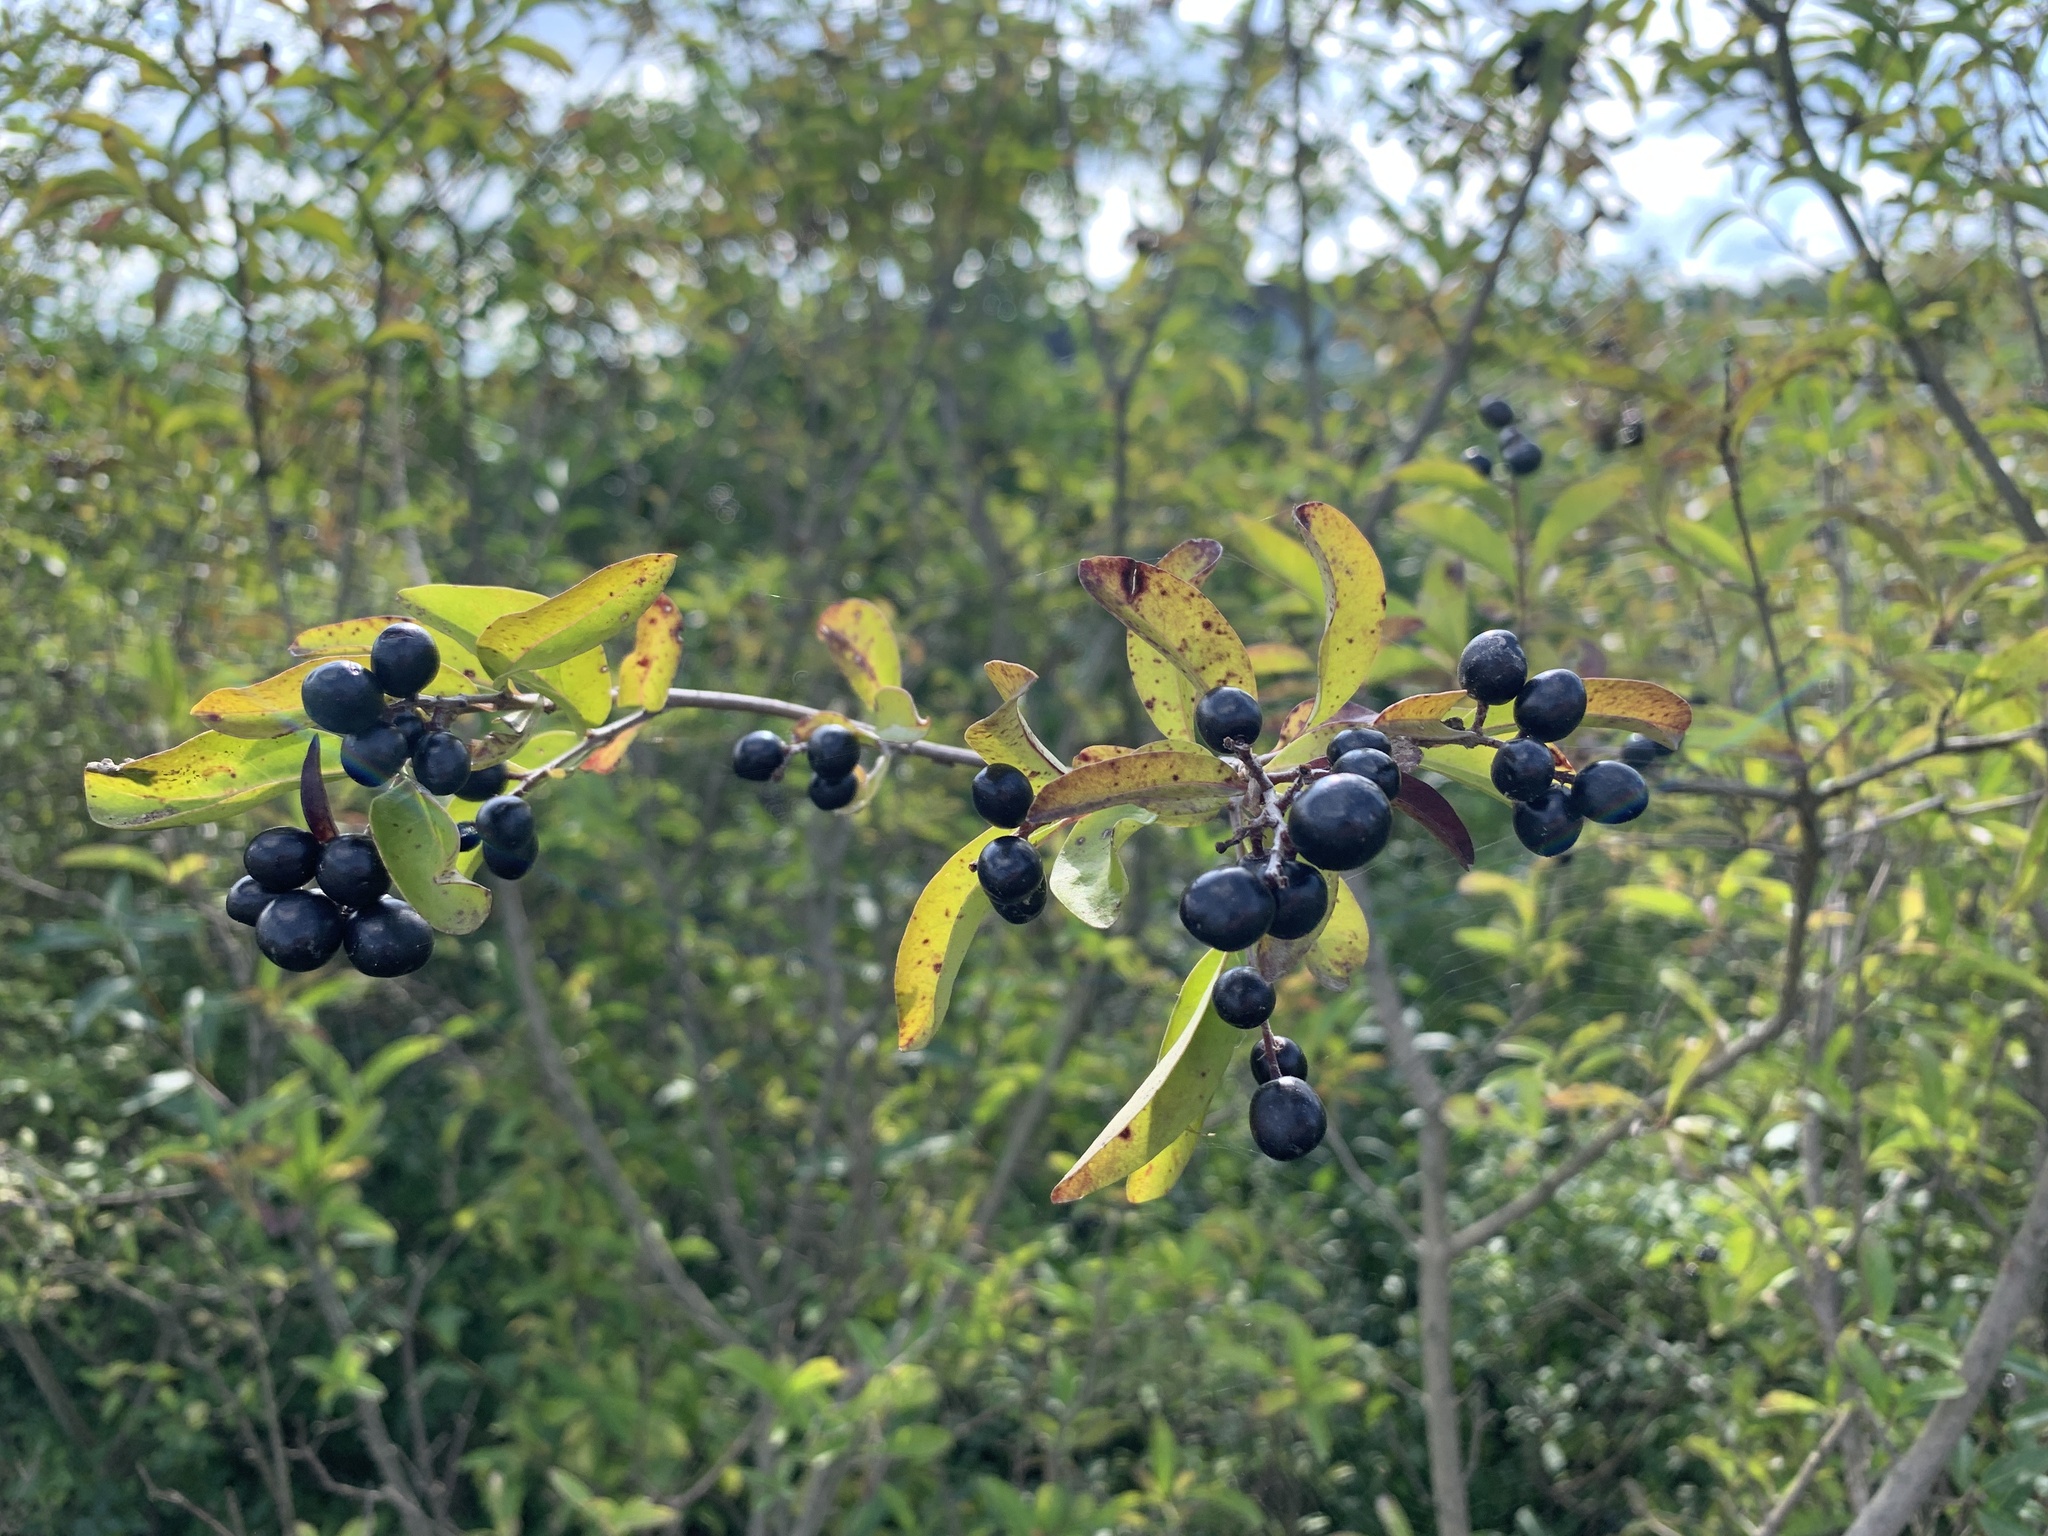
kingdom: Plantae
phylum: Tracheophyta
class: Magnoliopsida
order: Lamiales
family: Oleaceae
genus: Ligustrum
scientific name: Ligustrum vulgare
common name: Wild privet
